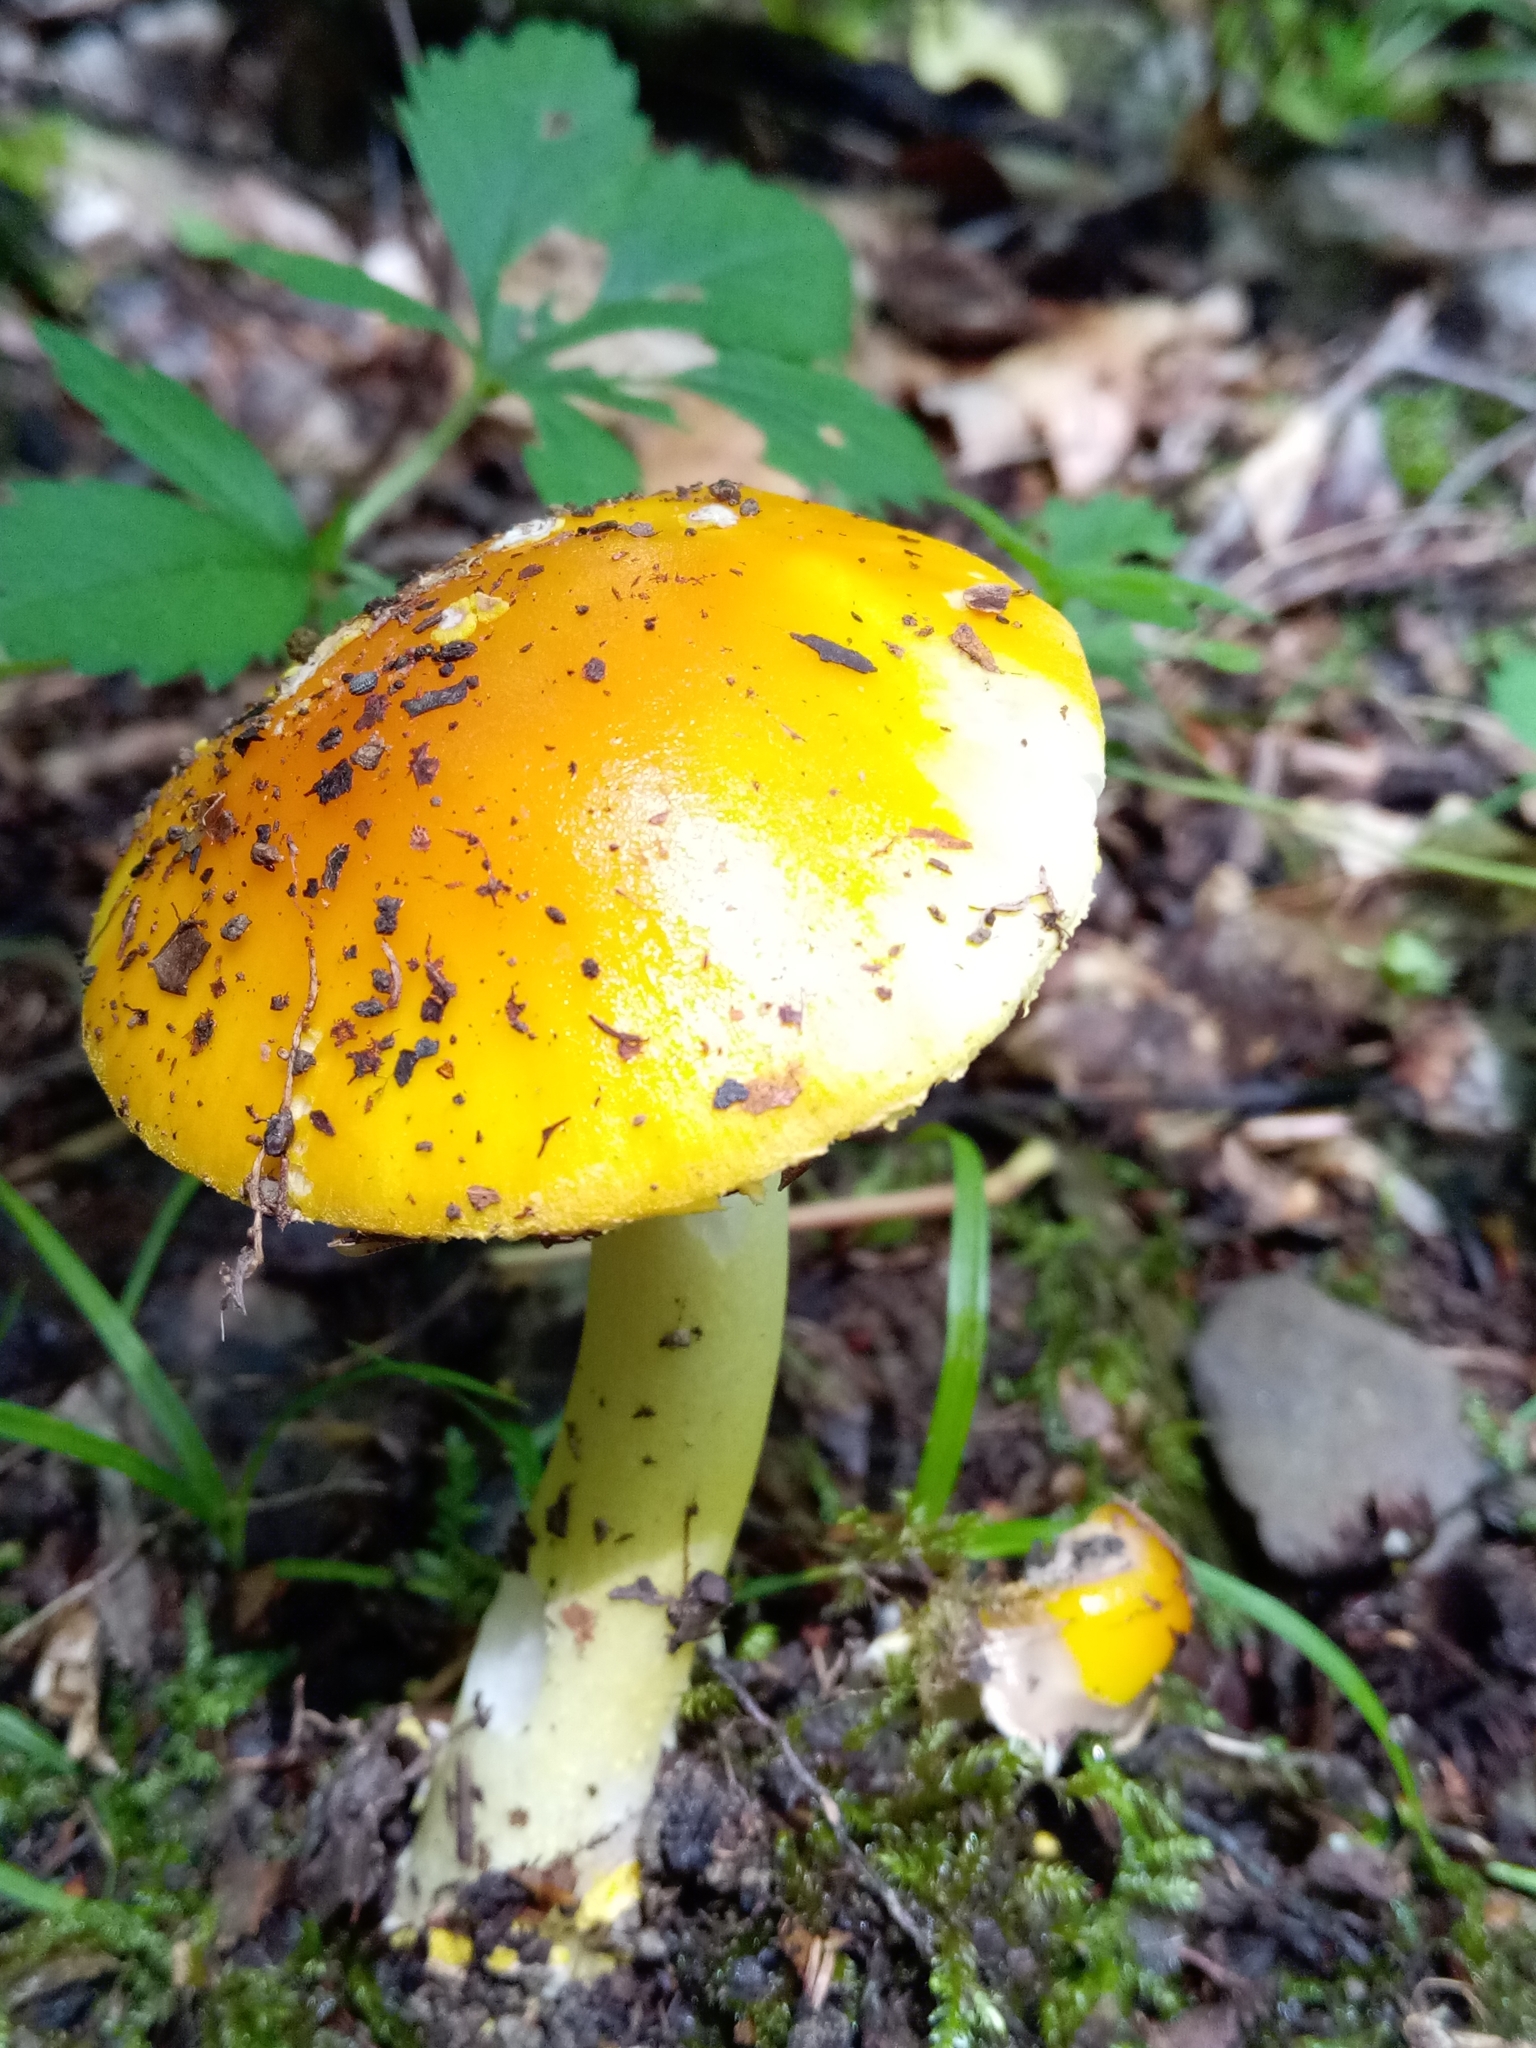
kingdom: Fungi
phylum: Basidiomycota
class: Agaricomycetes
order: Agaricales
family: Amanitaceae
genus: Amanita
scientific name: Amanita flavoconia
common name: Yellow patches
